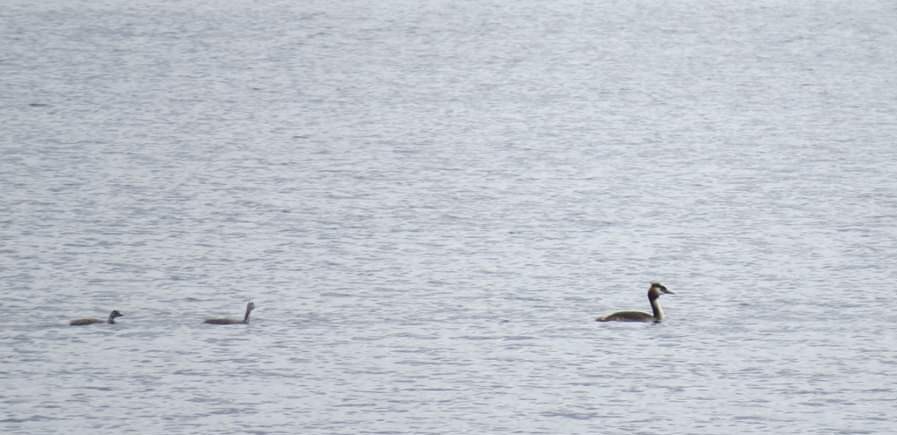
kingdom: Animalia
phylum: Chordata
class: Aves
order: Podicipediformes
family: Podicipedidae
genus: Podiceps
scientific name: Podiceps cristatus
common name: Great crested grebe
